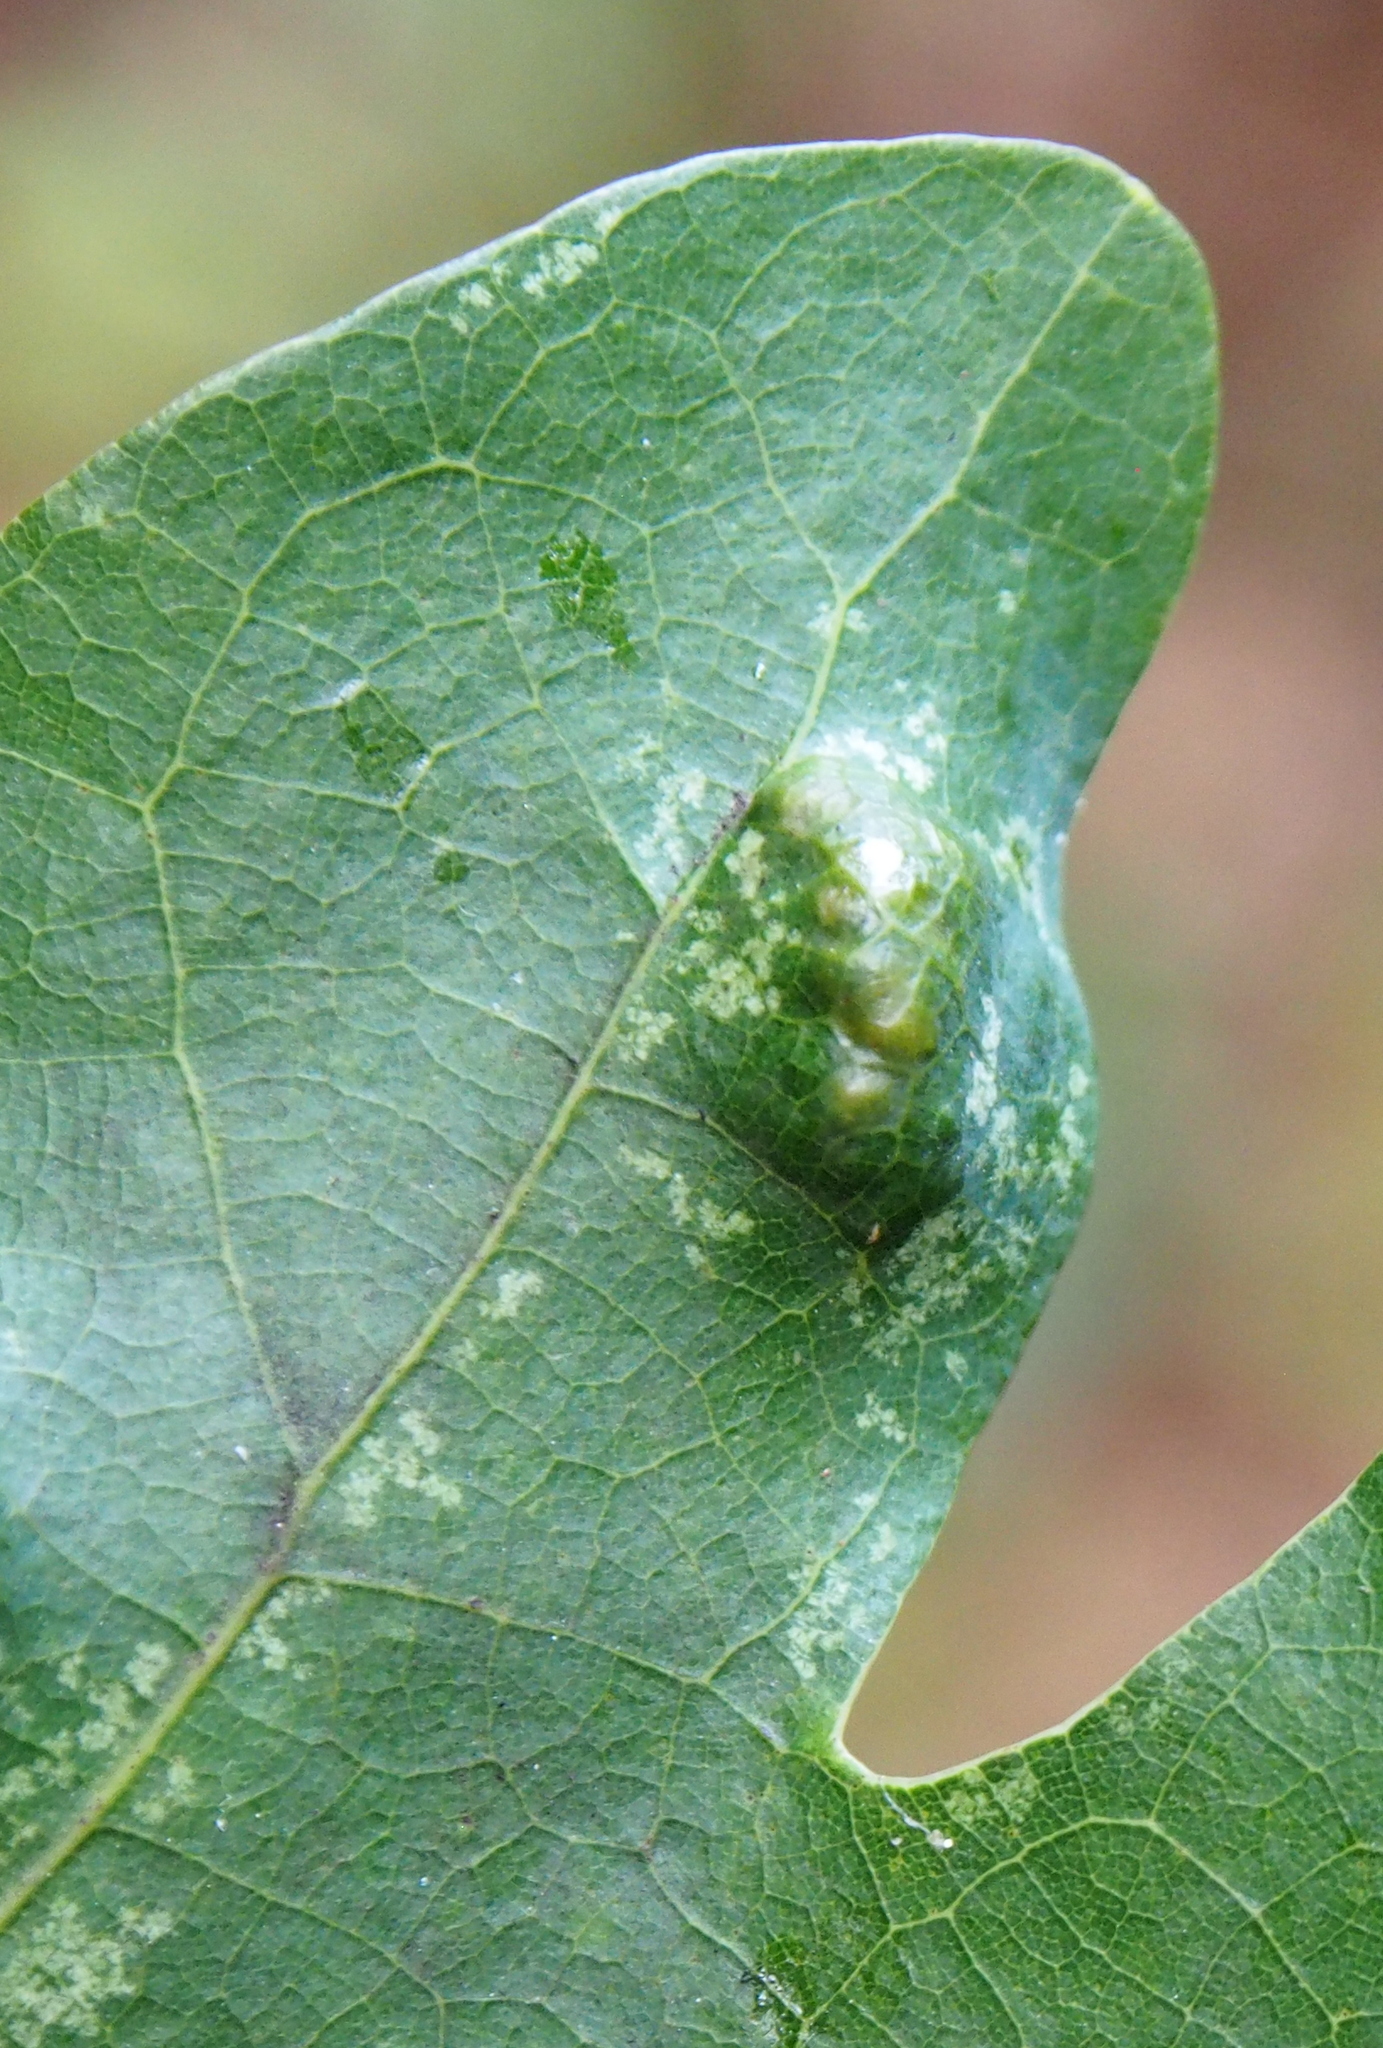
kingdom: Fungi
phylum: Ascomycota
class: Taphrinomycetes
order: Taphrinales
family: Taphrinaceae
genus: Taphrina
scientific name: Taphrina caerulescens
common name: Oak leaf blister
